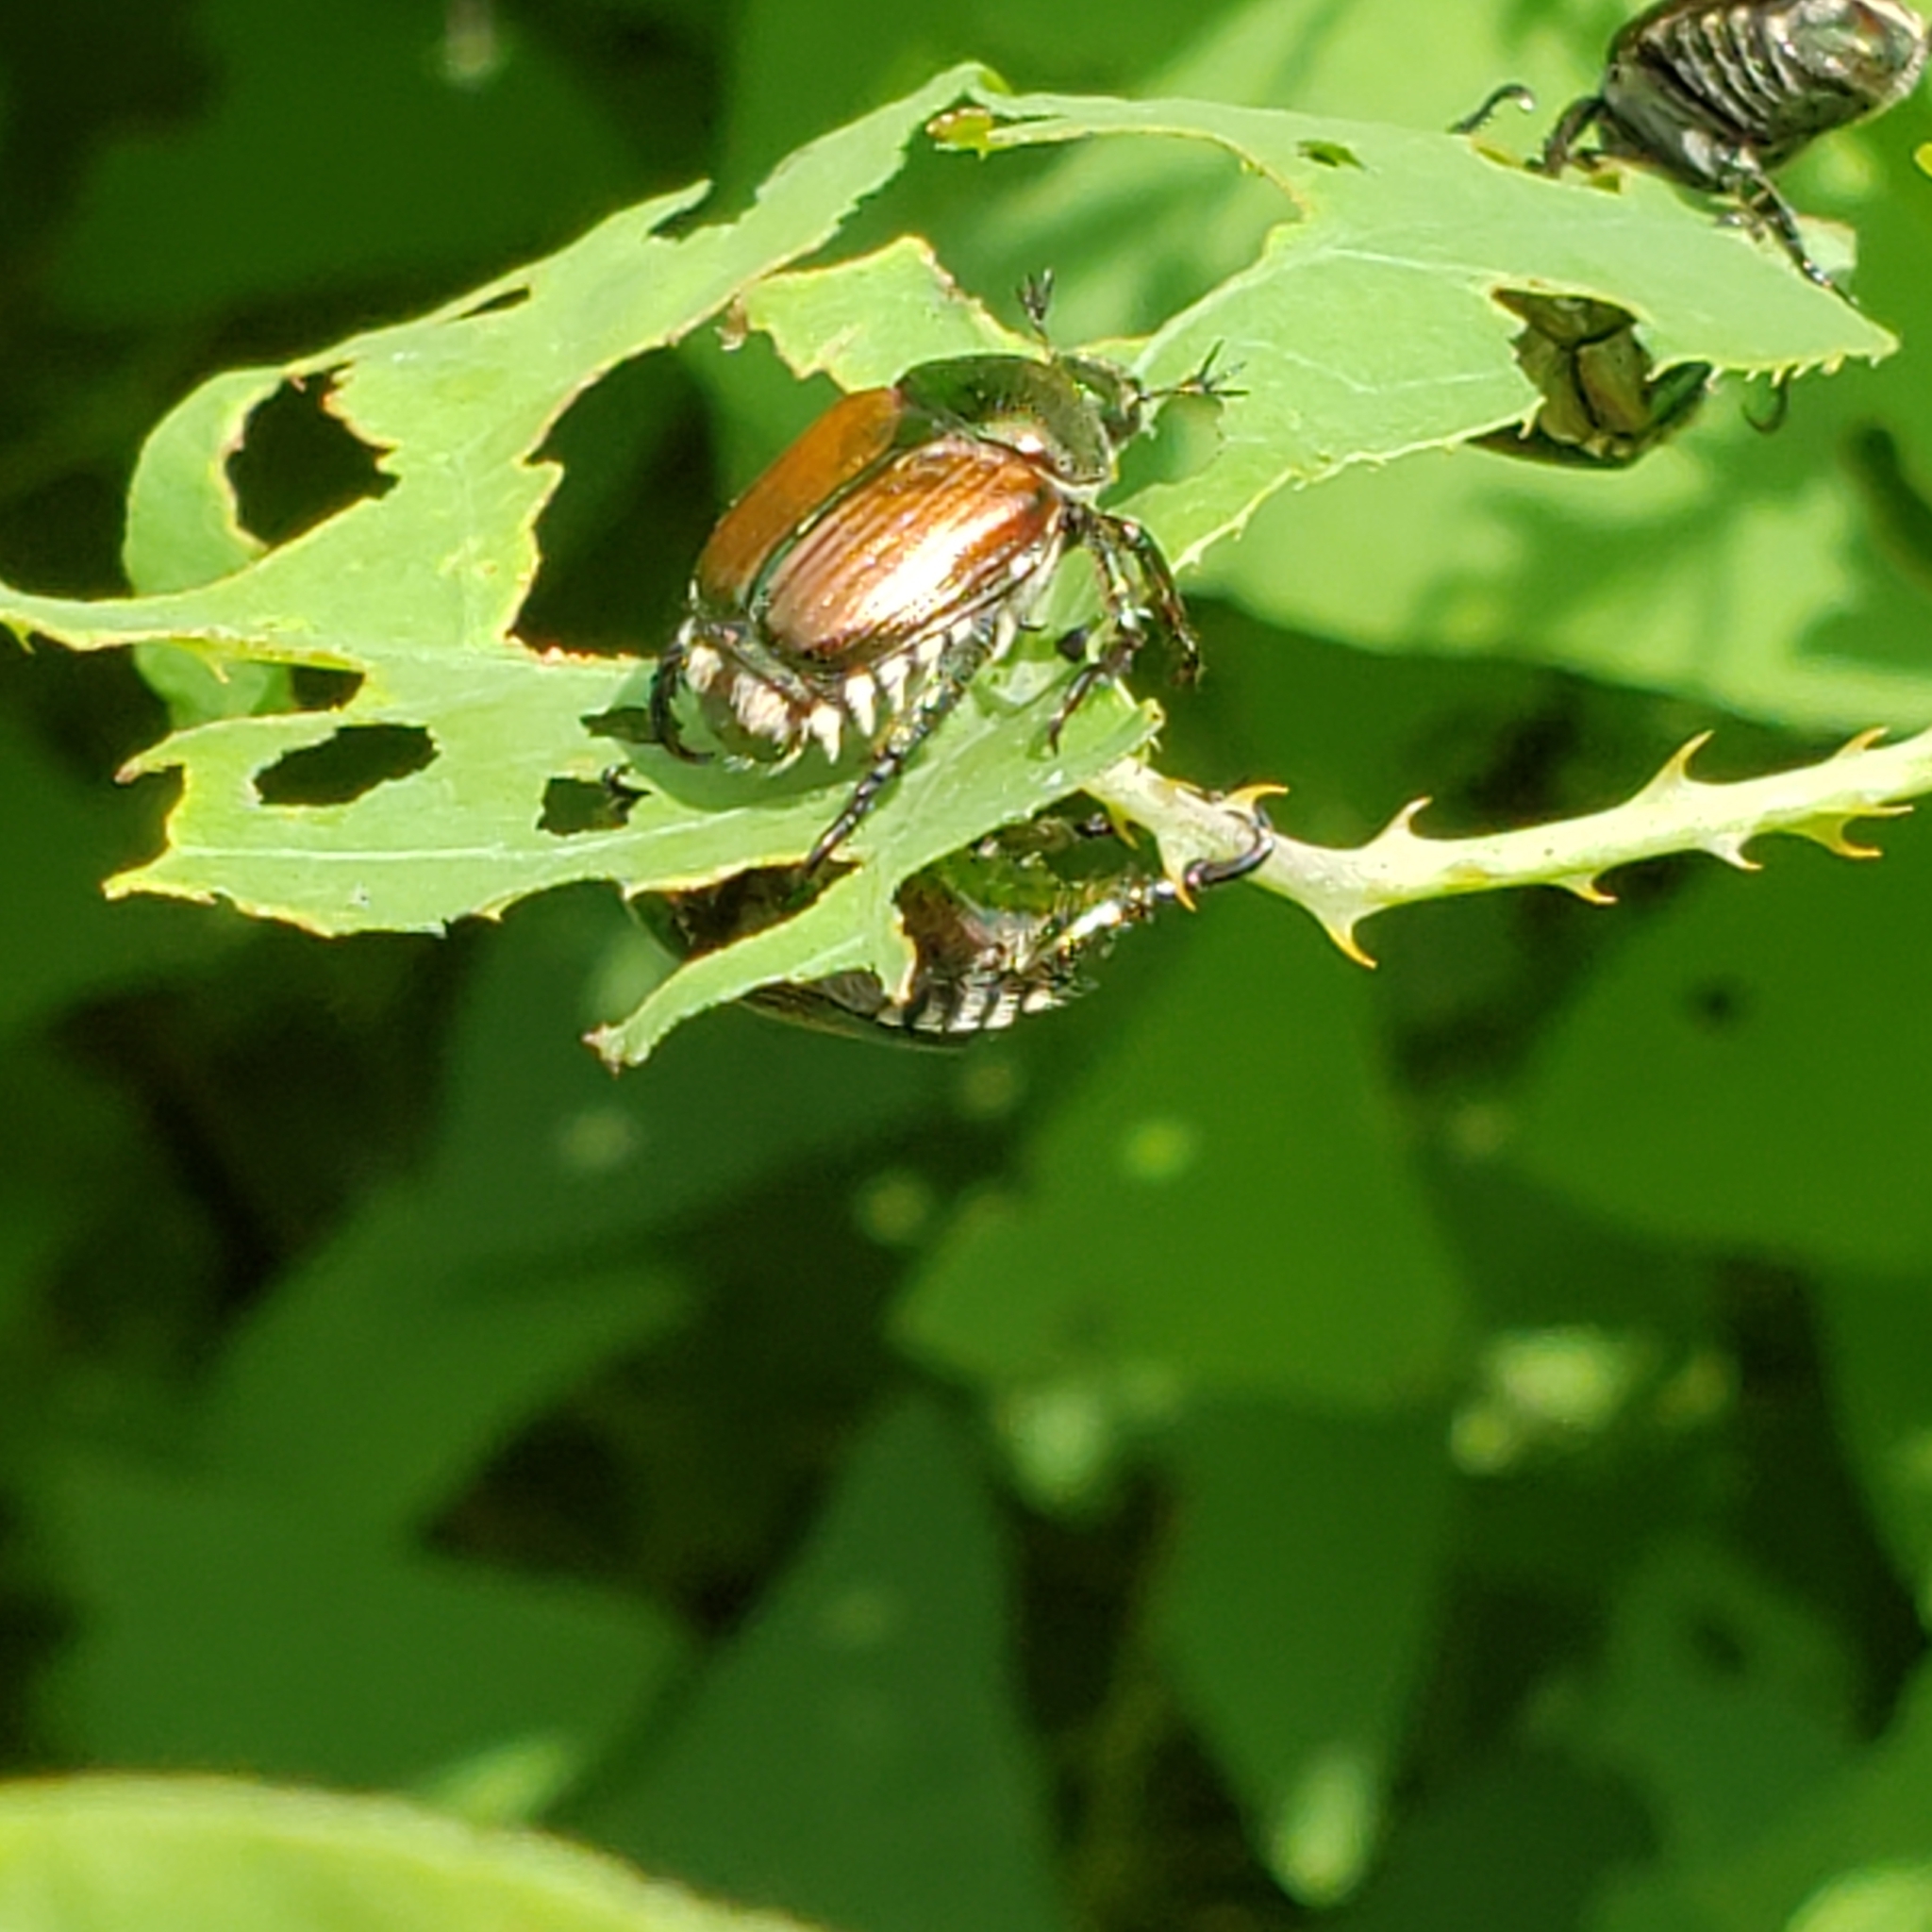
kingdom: Animalia
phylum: Arthropoda
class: Insecta
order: Coleoptera
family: Scarabaeidae
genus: Popillia
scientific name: Popillia japonica
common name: Japanese beetle
